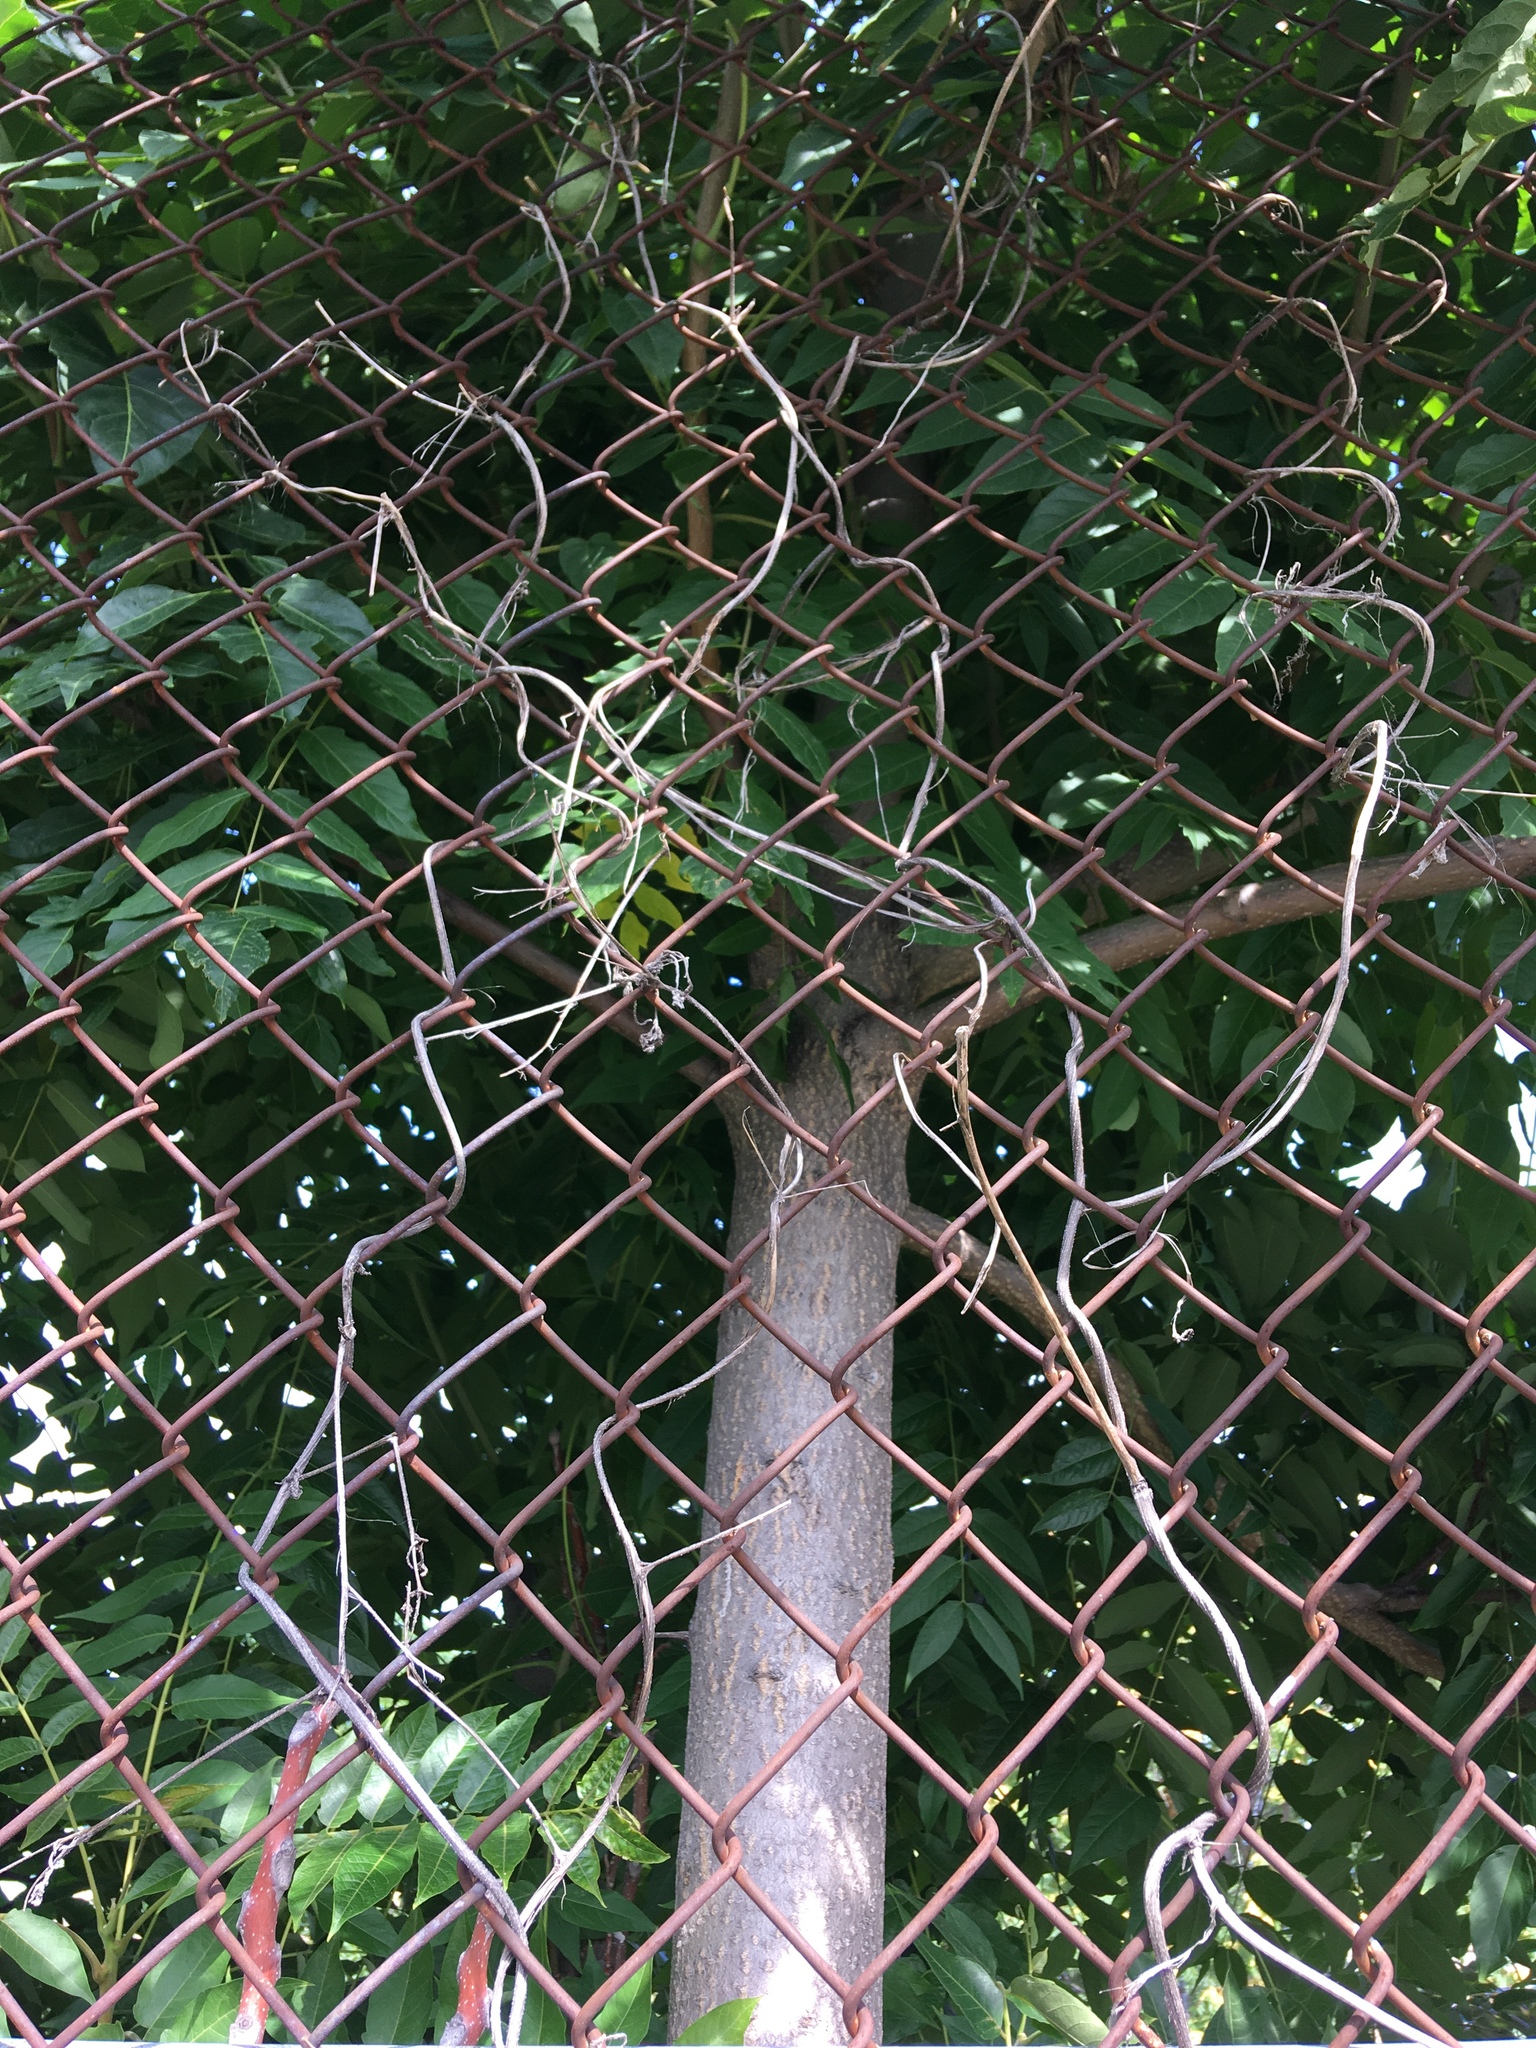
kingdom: Plantae
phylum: Tracheophyta
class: Magnoliopsida
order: Sapindales
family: Simaroubaceae
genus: Ailanthus
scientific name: Ailanthus altissima
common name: Tree-of-heaven
